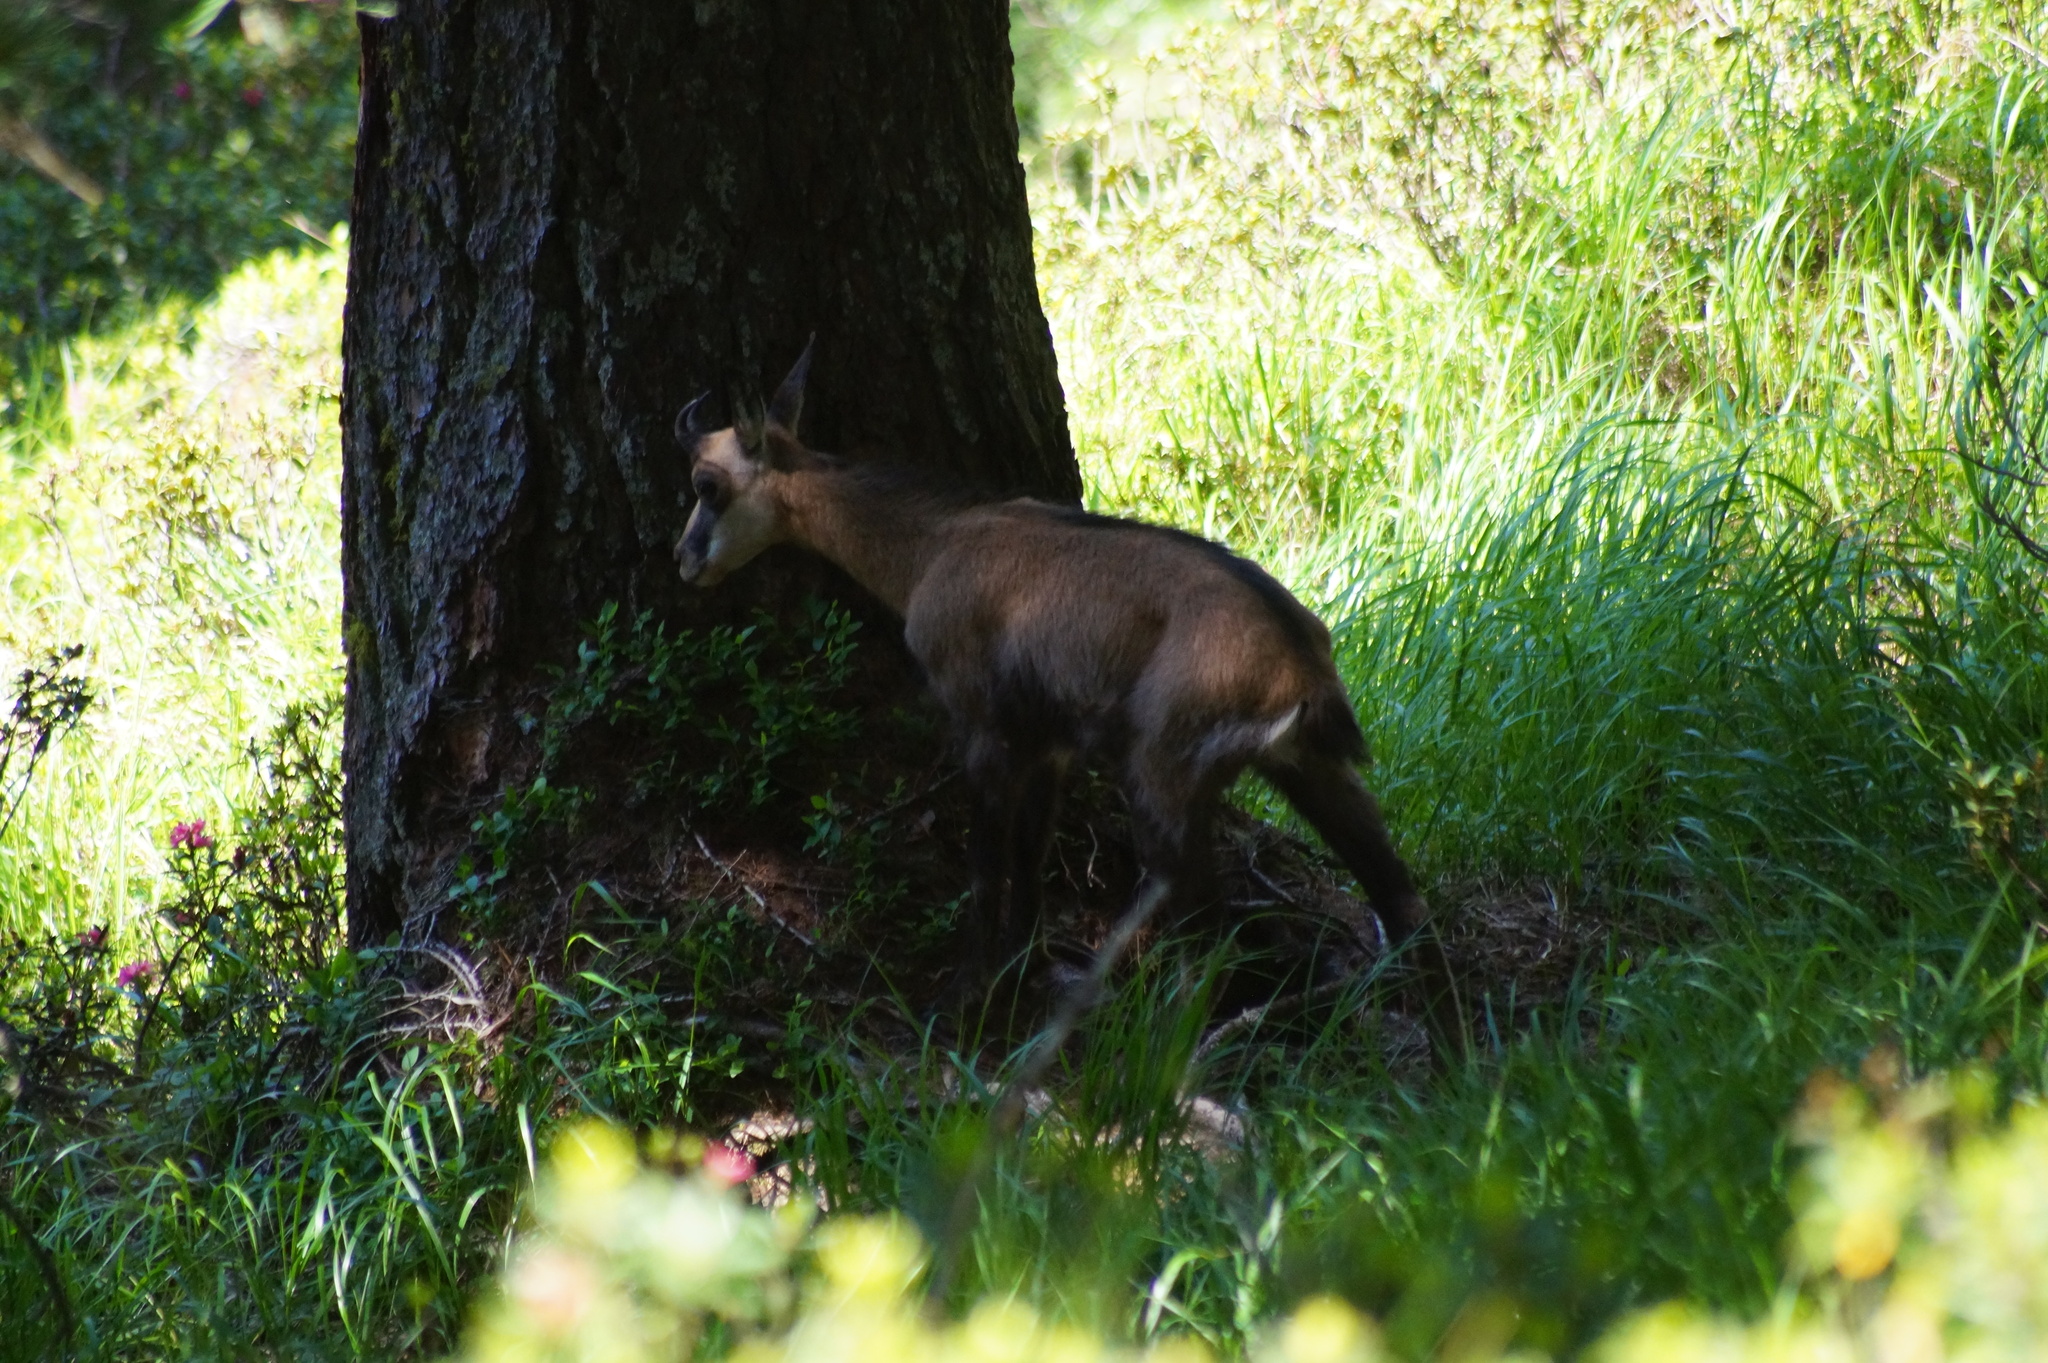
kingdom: Animalia
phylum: Chordata
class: Mammalia
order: Artiodactyla
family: Bovidae
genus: Rupicapra
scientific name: Rupicapra rupicapra
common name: Chamois
